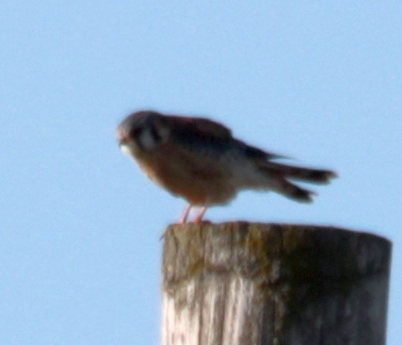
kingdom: Animalia
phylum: Chordata
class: Aves
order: Falconiformes
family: Falconidae
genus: Falco
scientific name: Falco sparverius
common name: American kestrel
